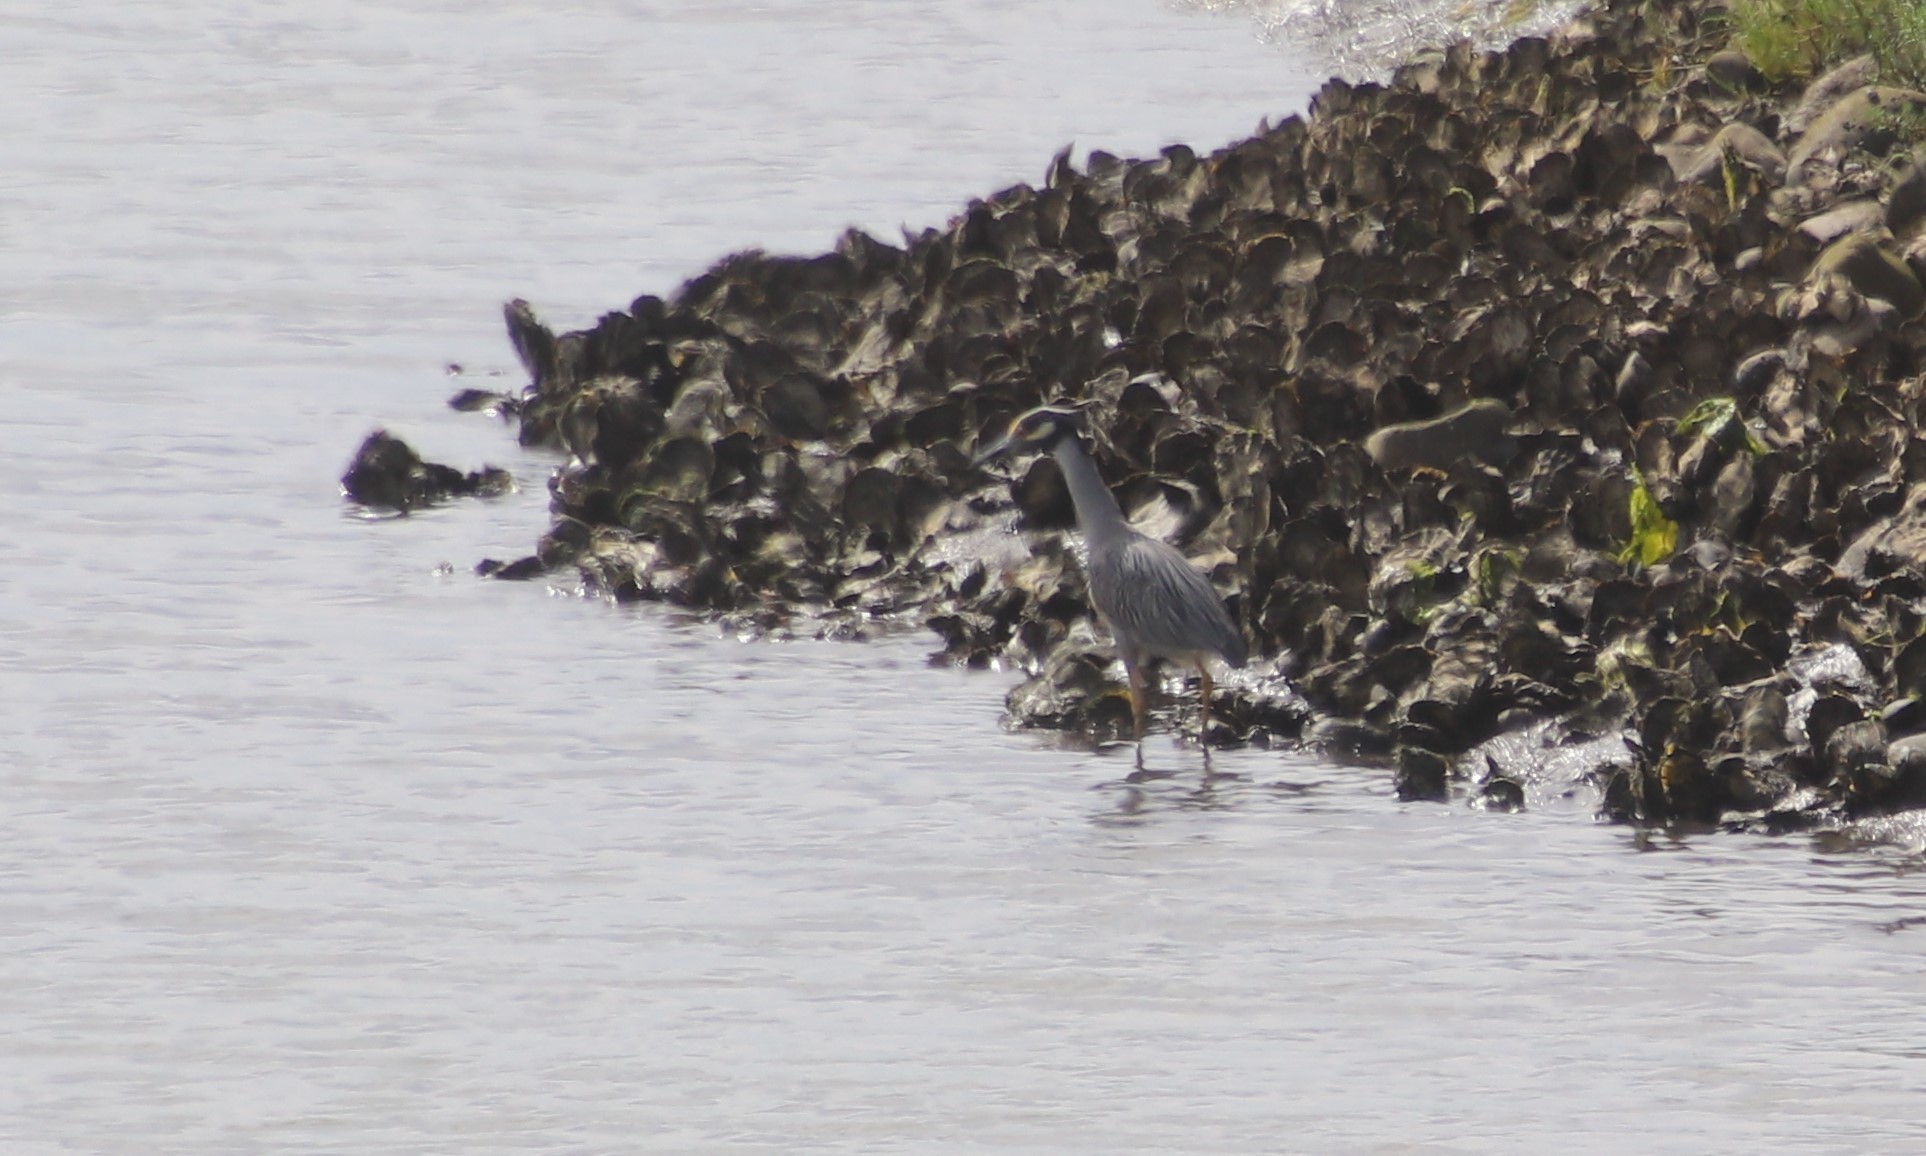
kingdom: Animalia
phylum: Chordata
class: Aves
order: Pelecaniformes
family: Ardeidae
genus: Nyctanassa
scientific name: Nyctanassa violacea
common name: Yellow-crowned night heron
